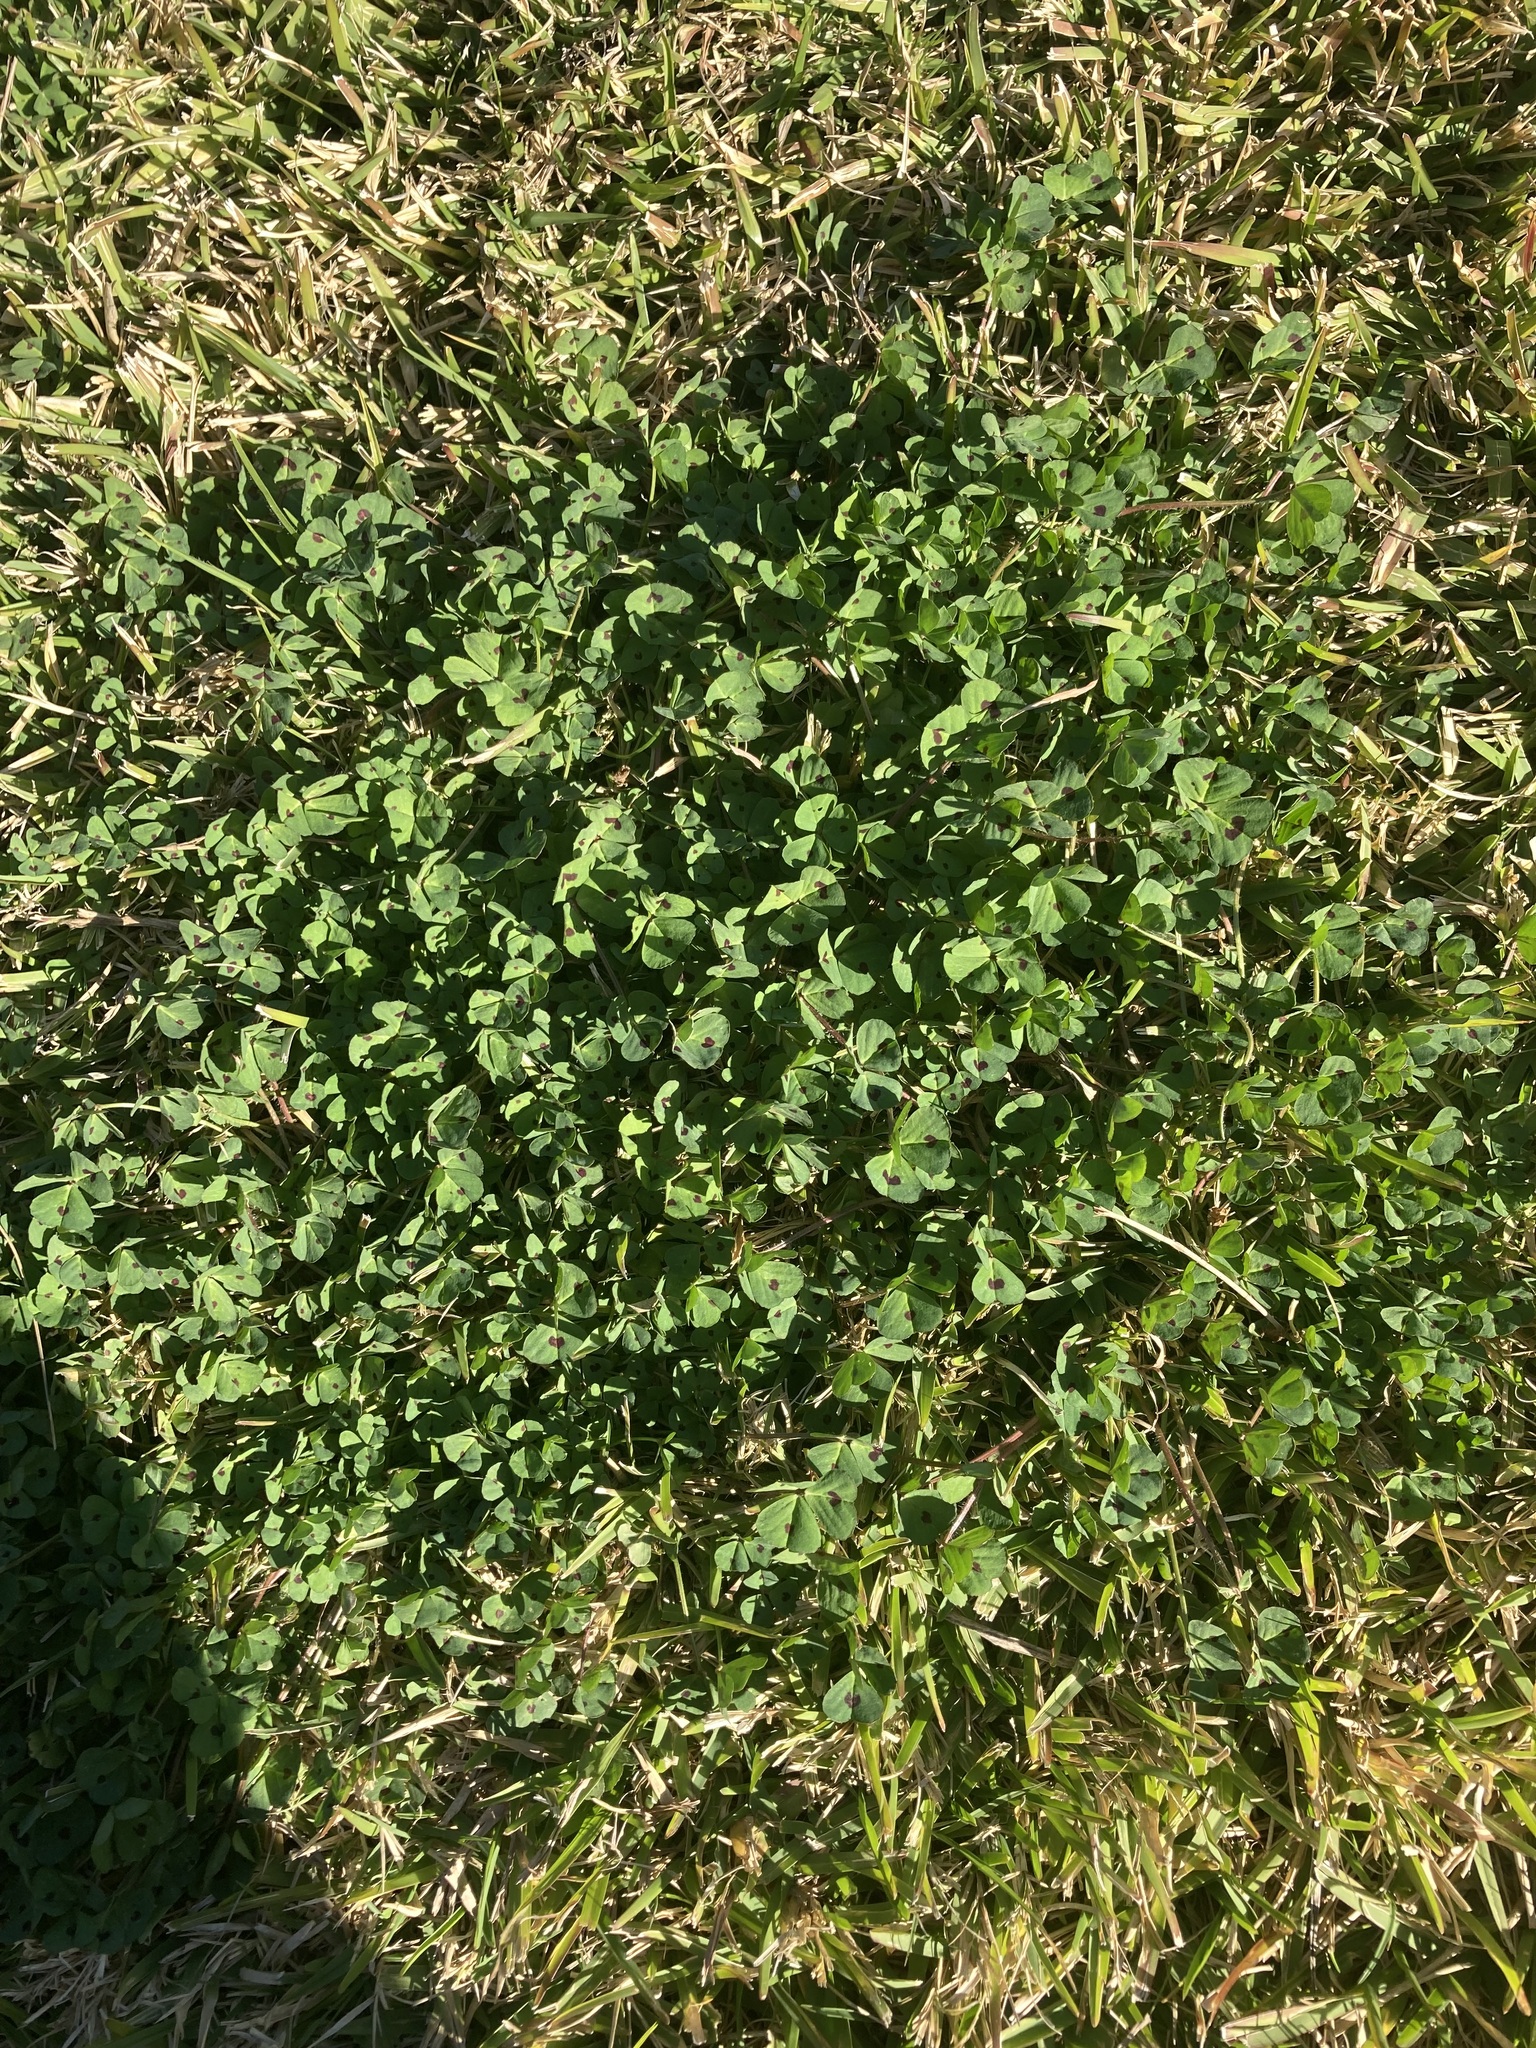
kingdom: Plantae
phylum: Tracheophyta
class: Magnoliopsida
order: Fabales
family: Fabaceae
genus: Medicago
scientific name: Medicago arabica
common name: Spotted medick
